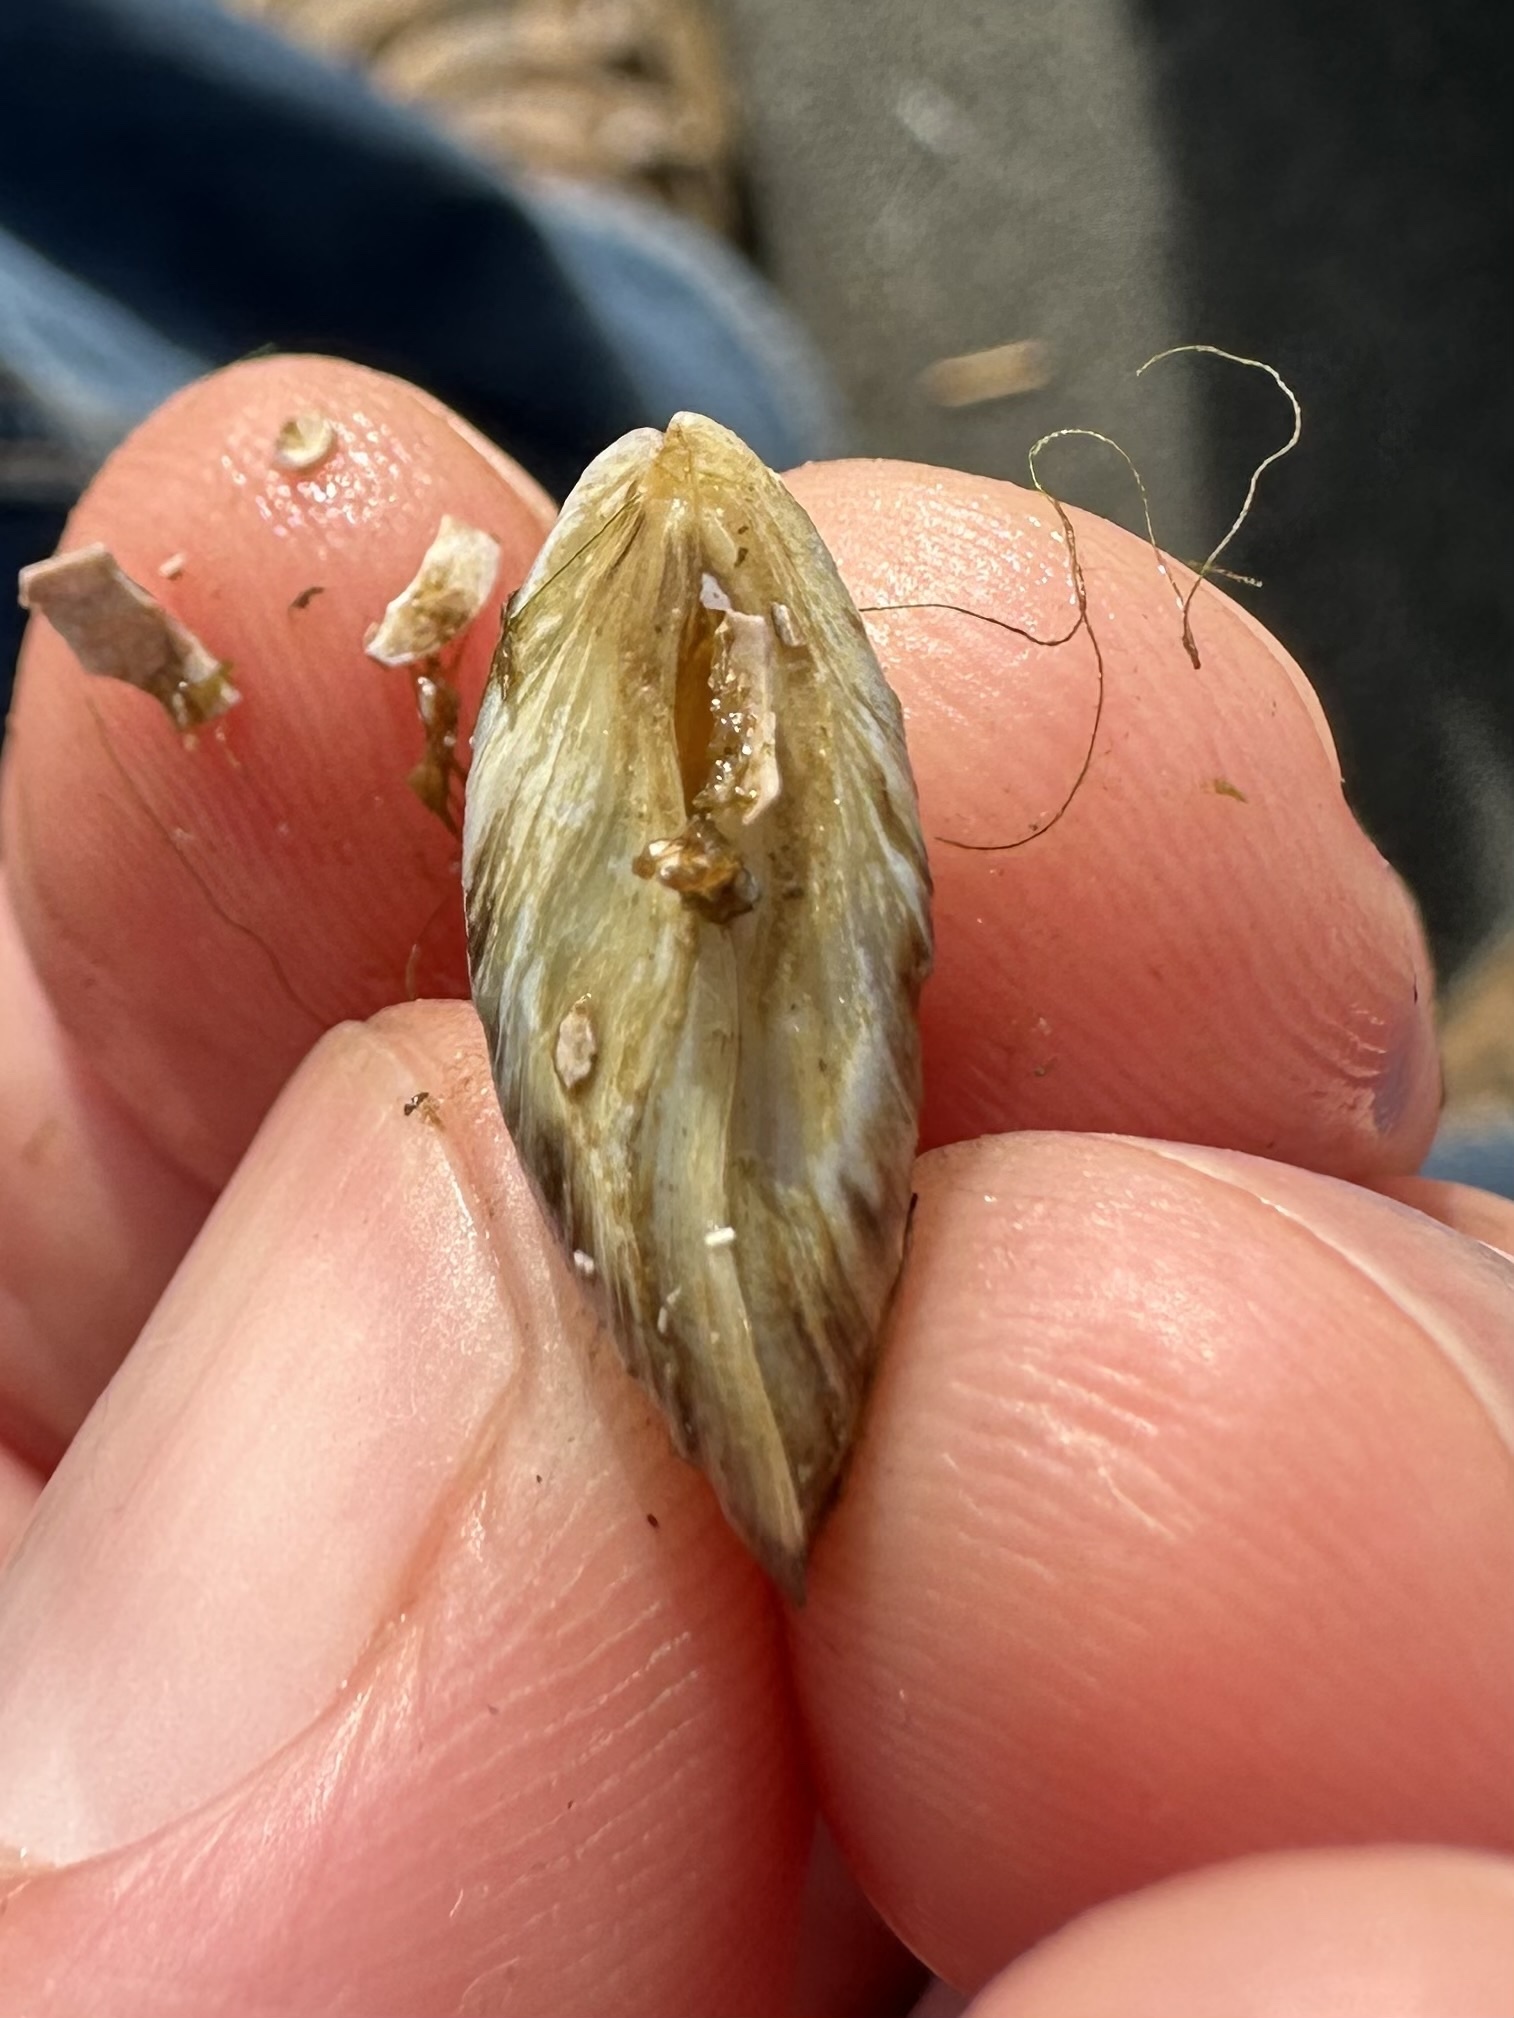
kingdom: Animalia
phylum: Mollusca
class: Bivalvia
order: Myida
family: Dreissenidae
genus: Dreissena
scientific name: Dreissena bugensis
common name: Quagga mussel
